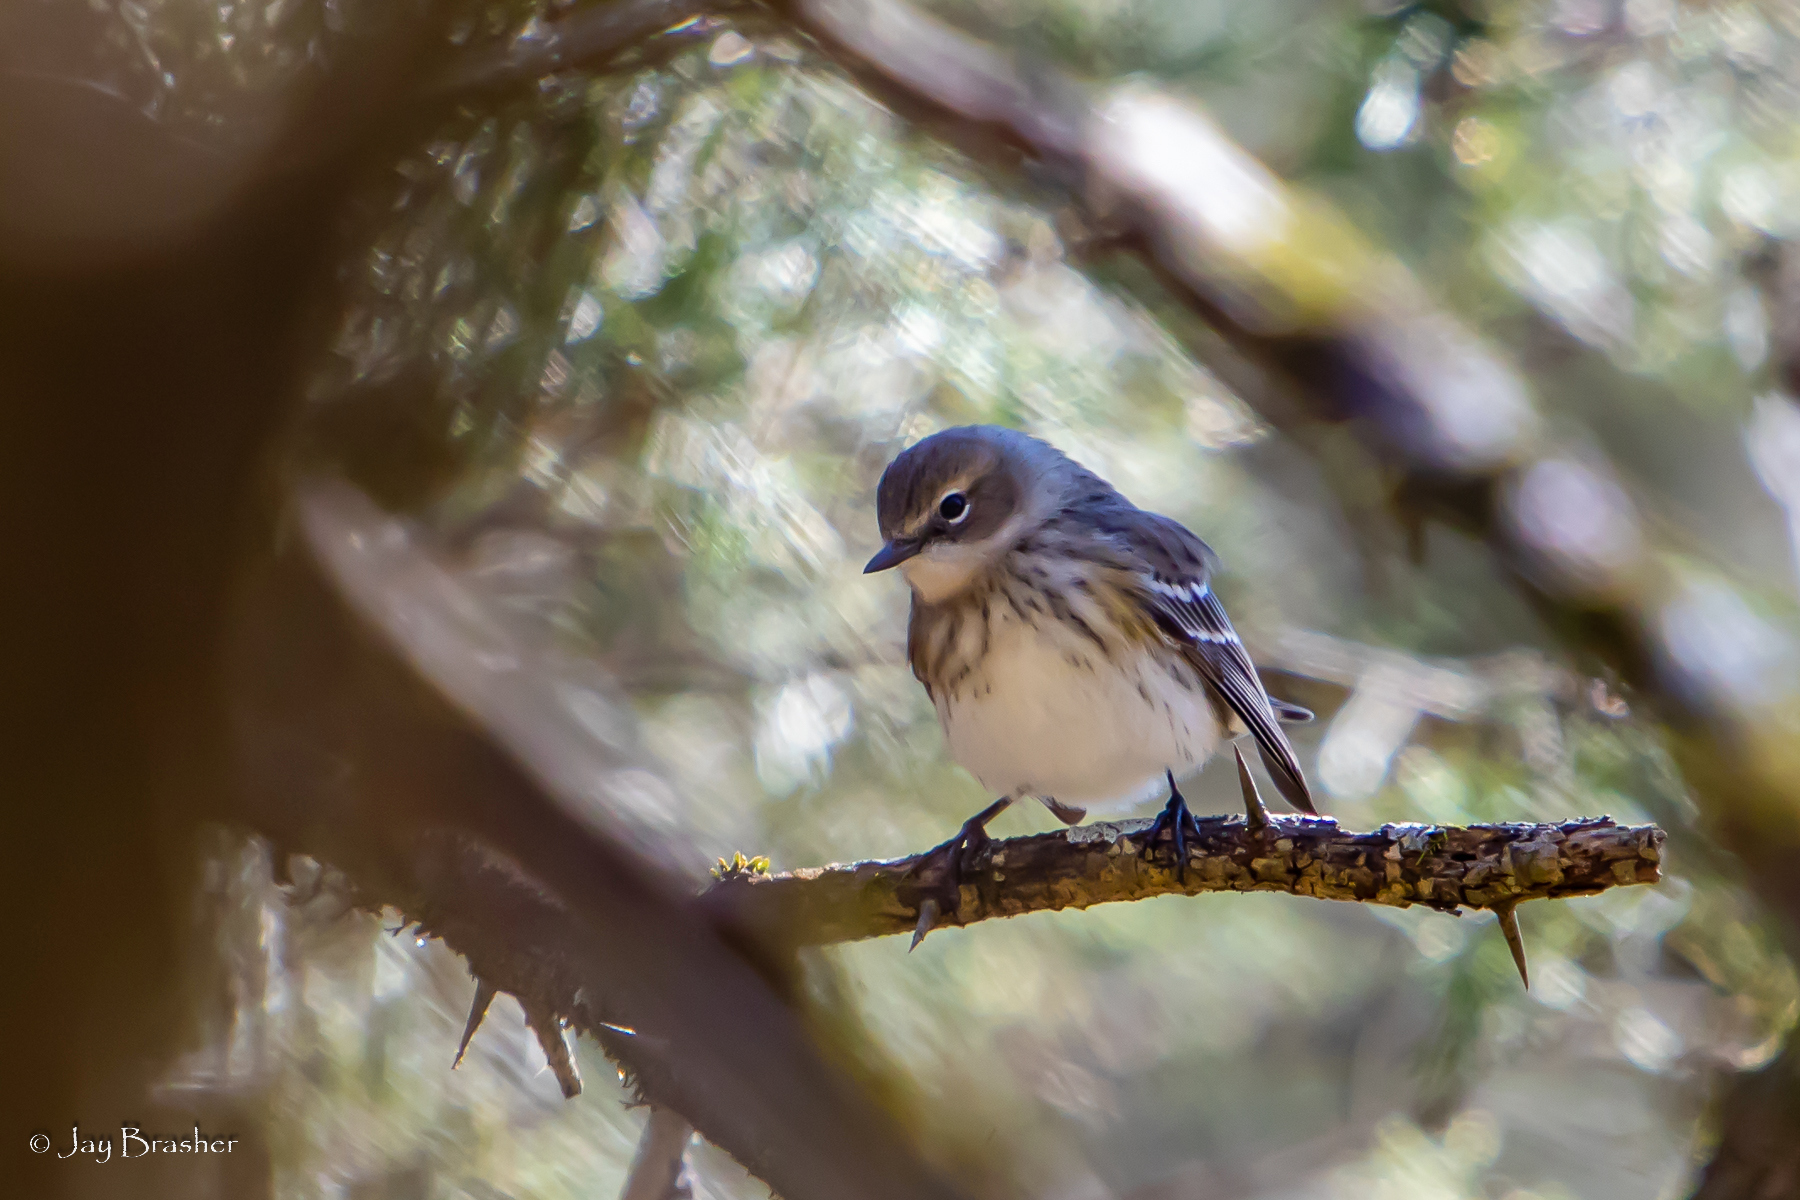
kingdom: Animalia
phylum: Chordata
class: Aves
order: Passeriformes
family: Parulidae
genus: Setophaga
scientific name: Setophaga coronata
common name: Myrtle warbler
